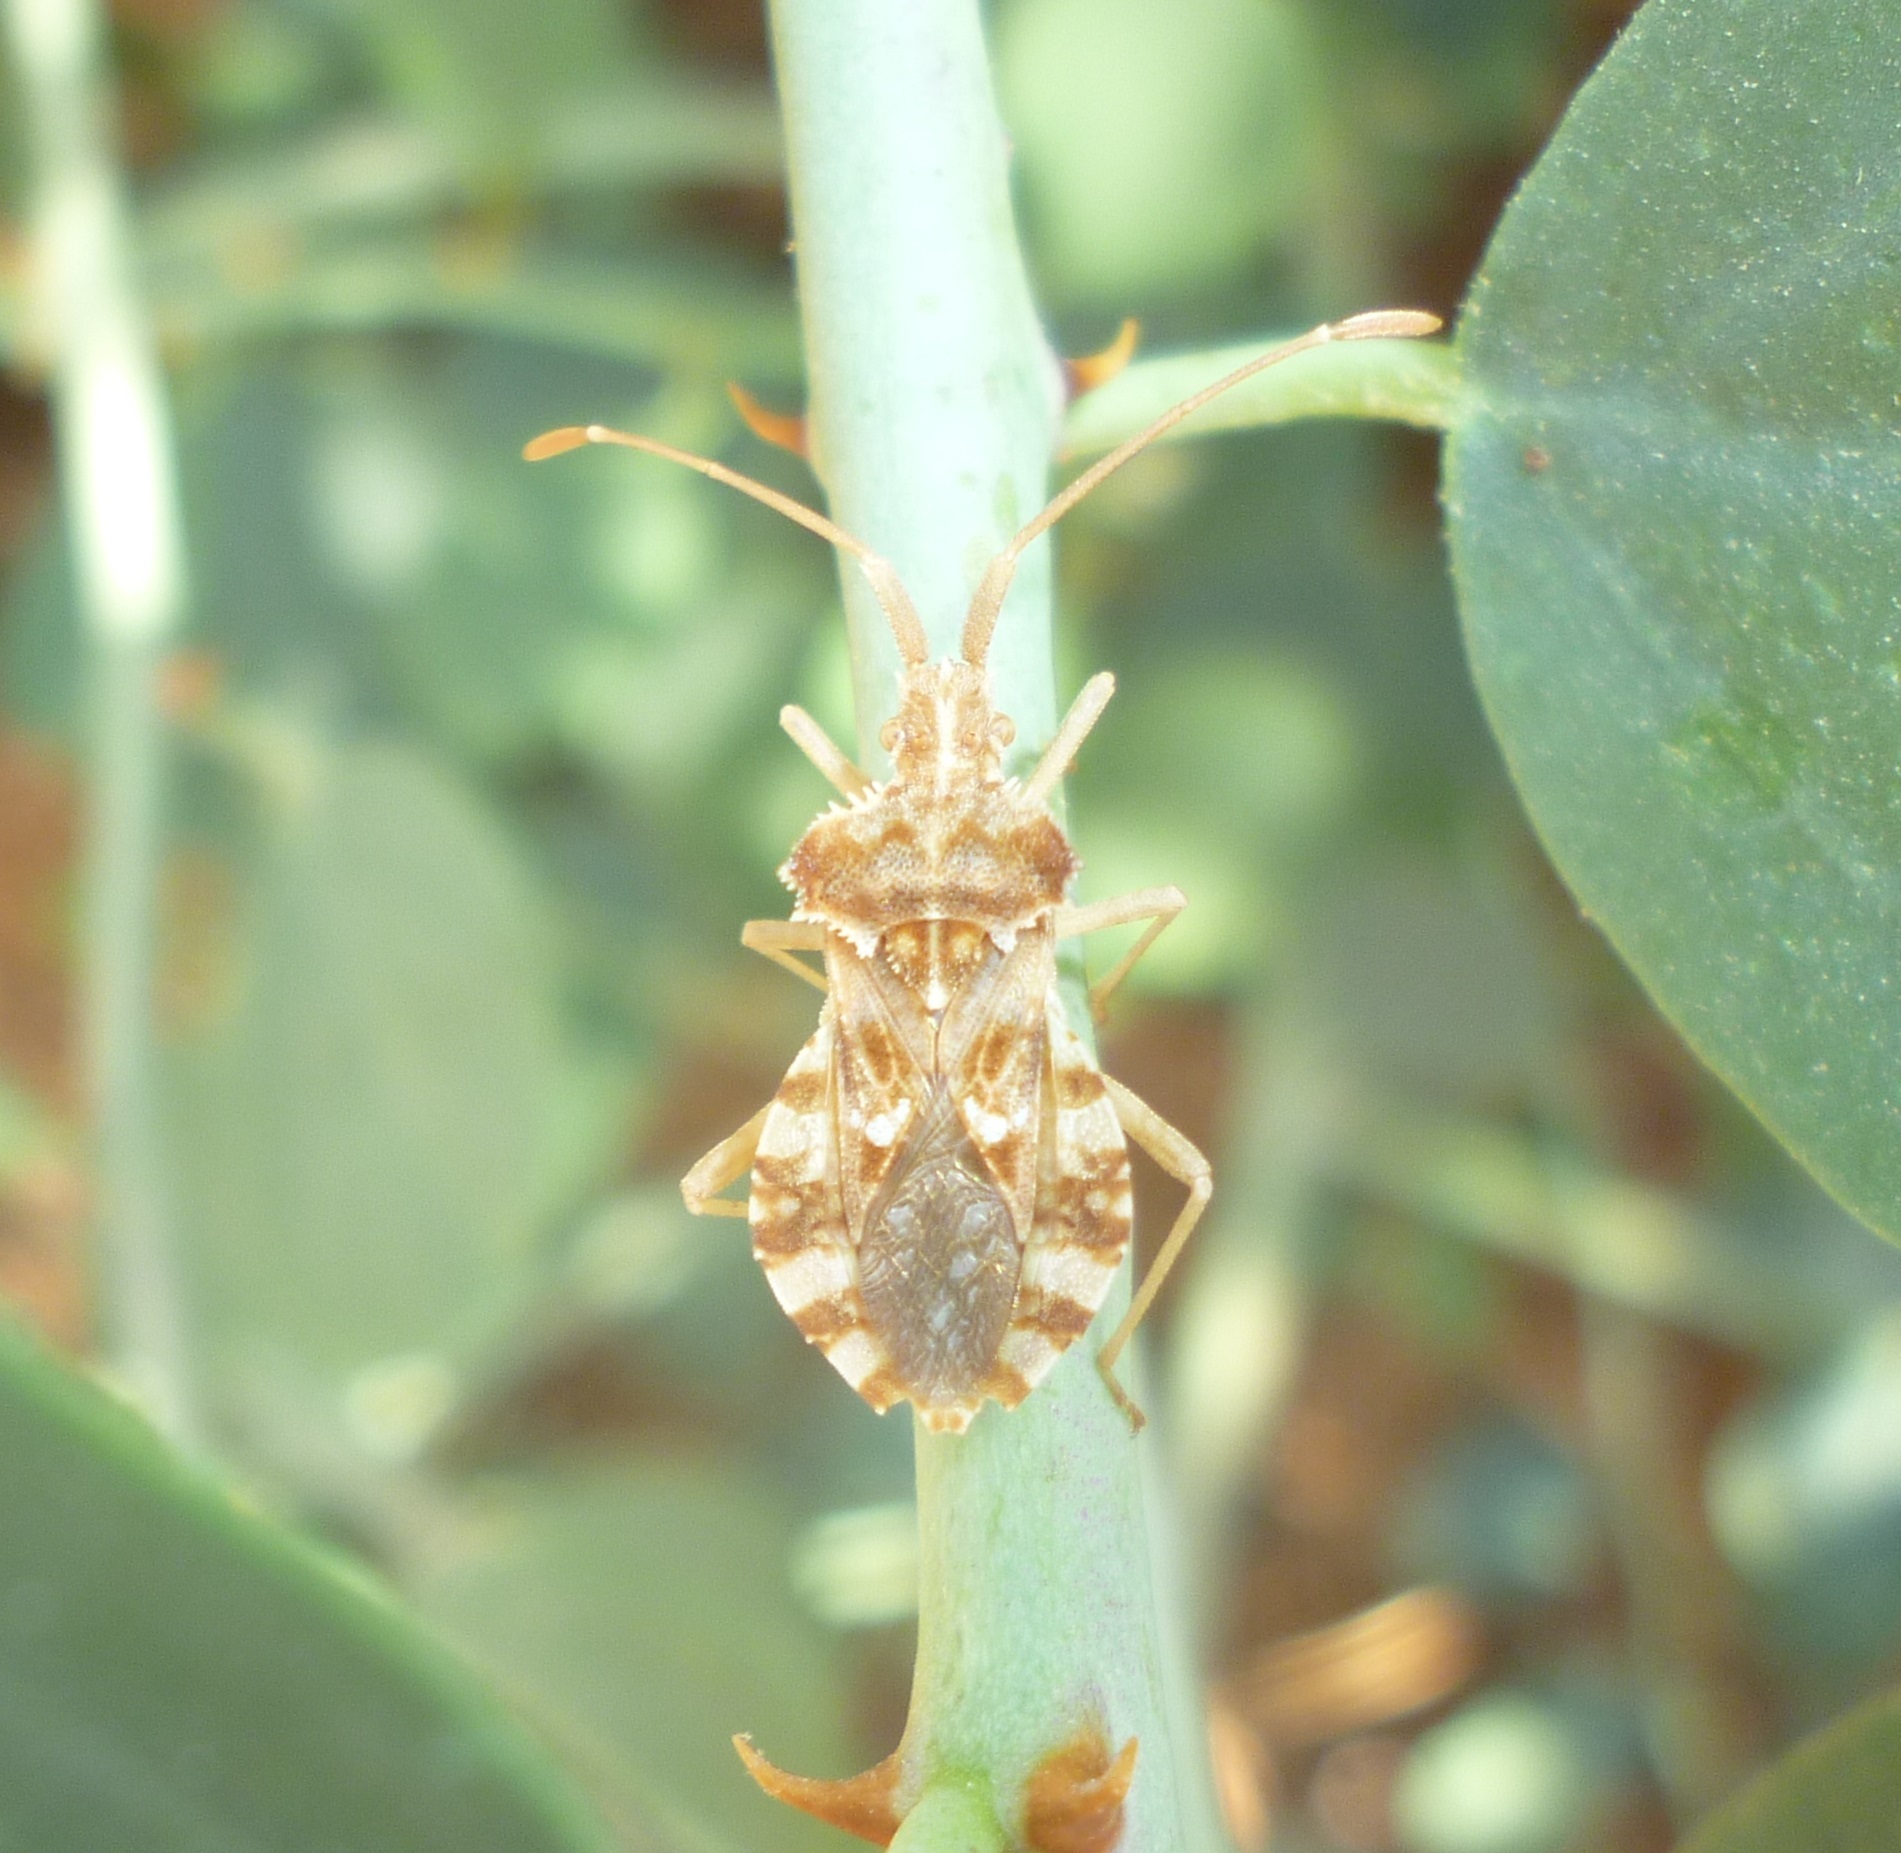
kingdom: Animalia
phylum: Arthropoda
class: Insecta
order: Hemiptera
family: Coreidae
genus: Centrocoris
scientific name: Centrocoris spiniger
